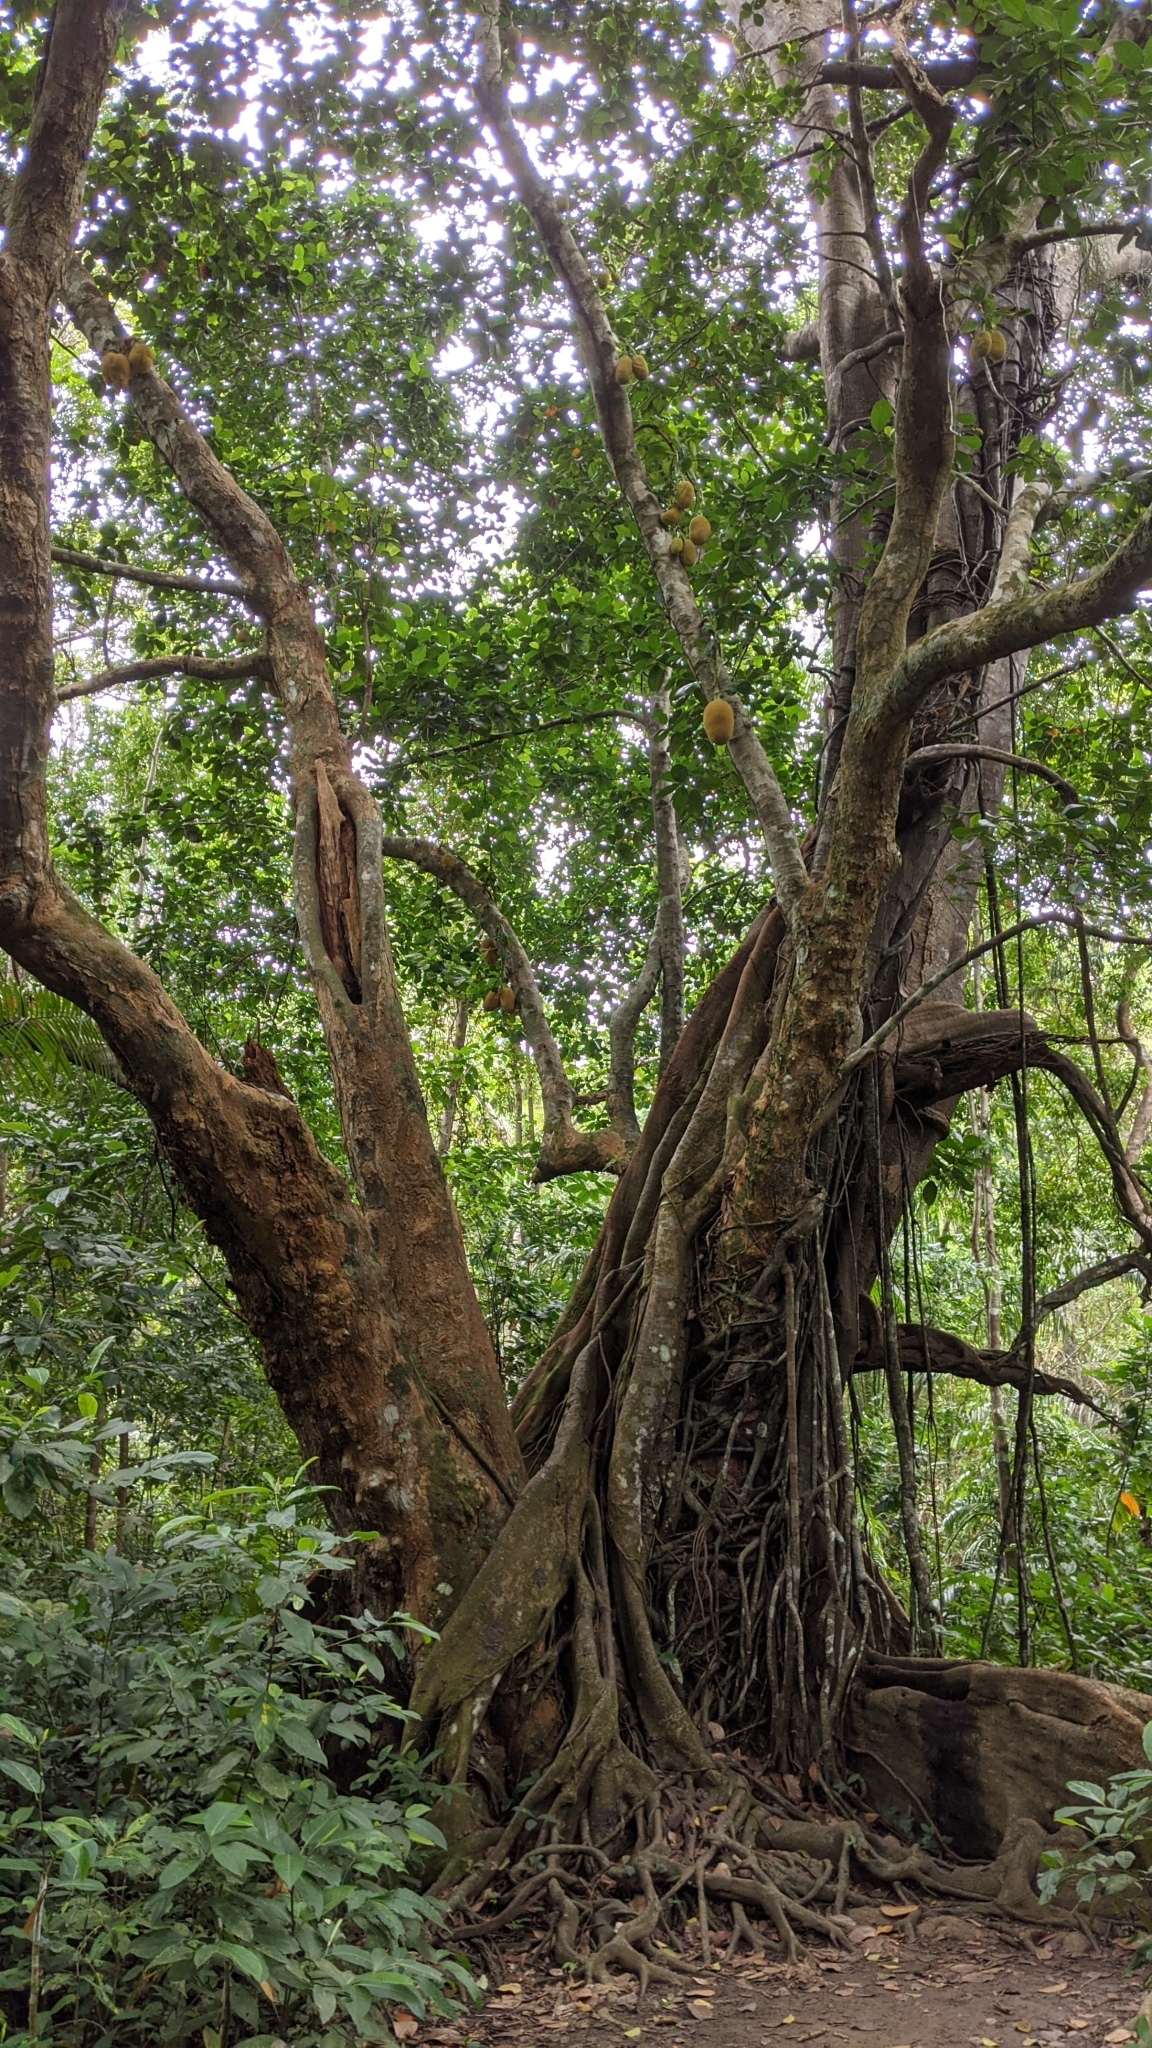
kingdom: Plantae
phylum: Tracheophyta
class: Magnoliopsida
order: Rosales
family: Moraceae
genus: Artocarpus
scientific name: Artocarpus heterophyllus
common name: Jackfruit
